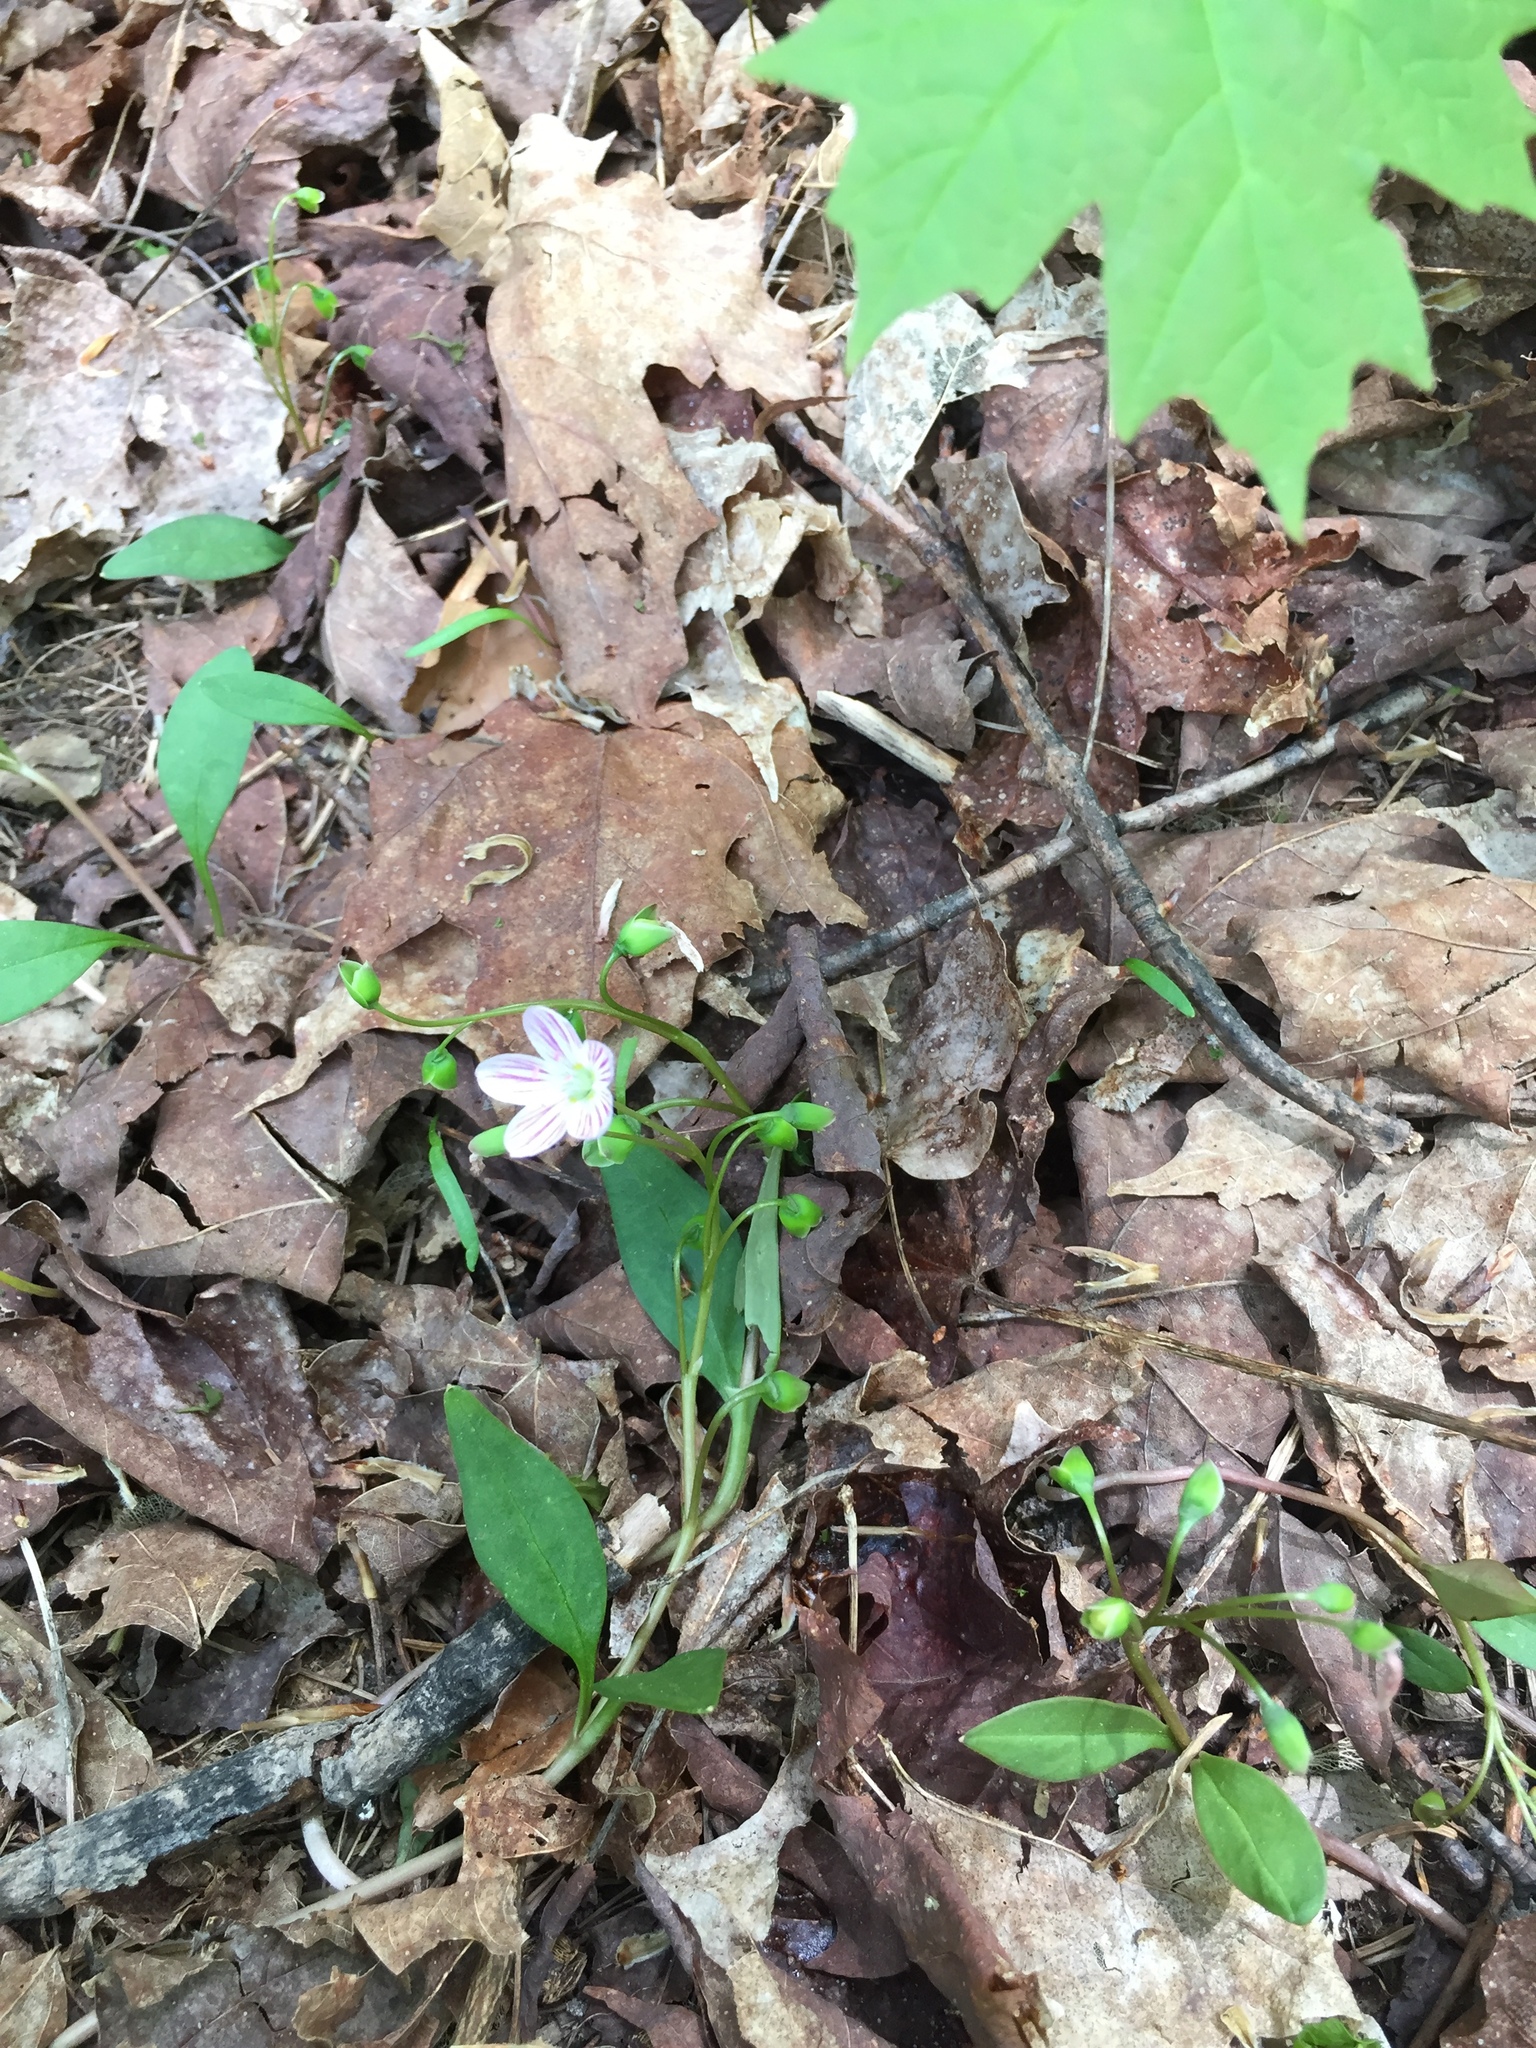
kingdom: Plantae
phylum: Tracheophyta
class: Magnoliopsida
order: Caryophyllales
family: Montiaceae
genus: Claytonia
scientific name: Claytonia caroliniana
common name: Carolina spring beauty
